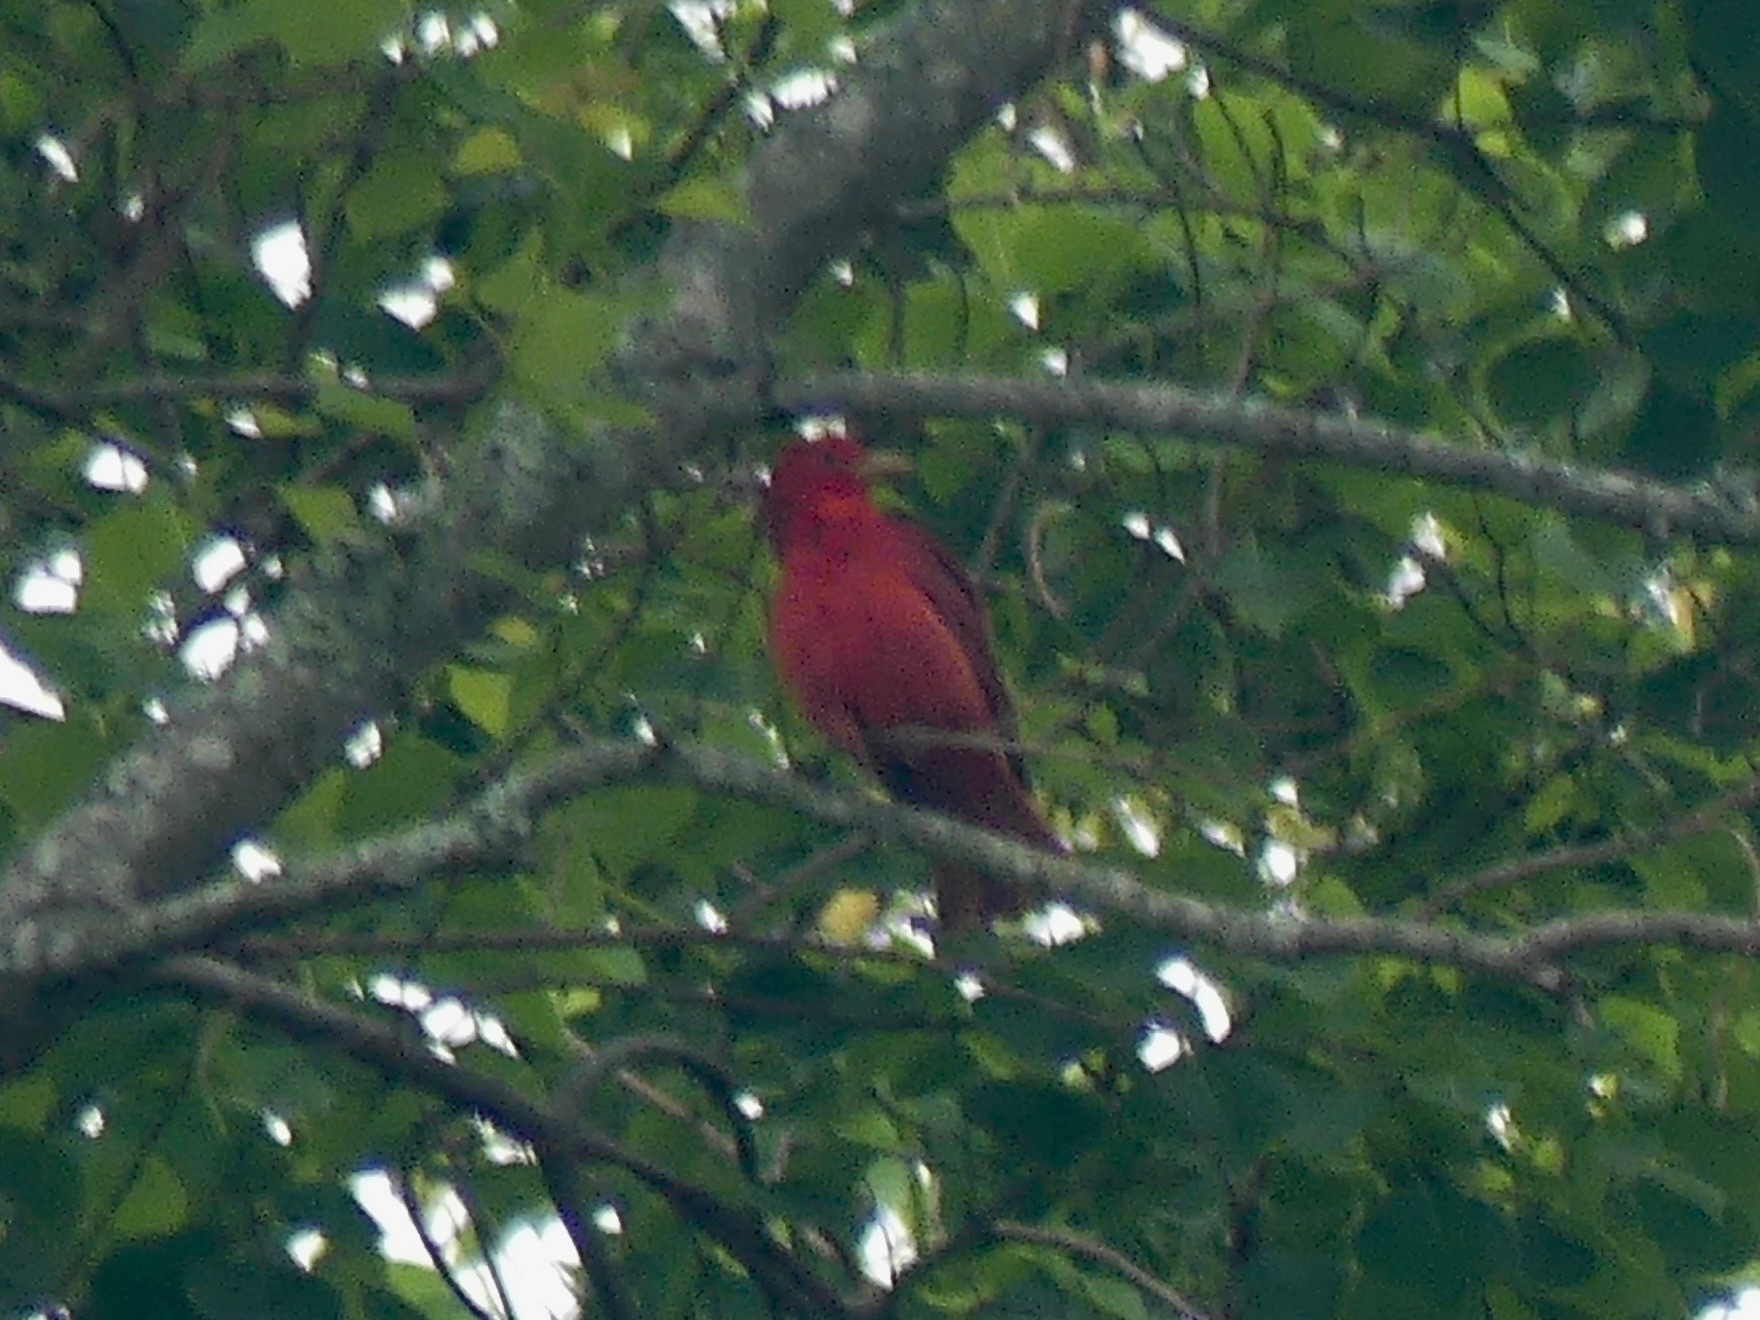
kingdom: Animalia
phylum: Chordata
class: Aves
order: Passeriformes
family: Cardinalidae
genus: Piranga
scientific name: Piranga rubra
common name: Summer tanager
